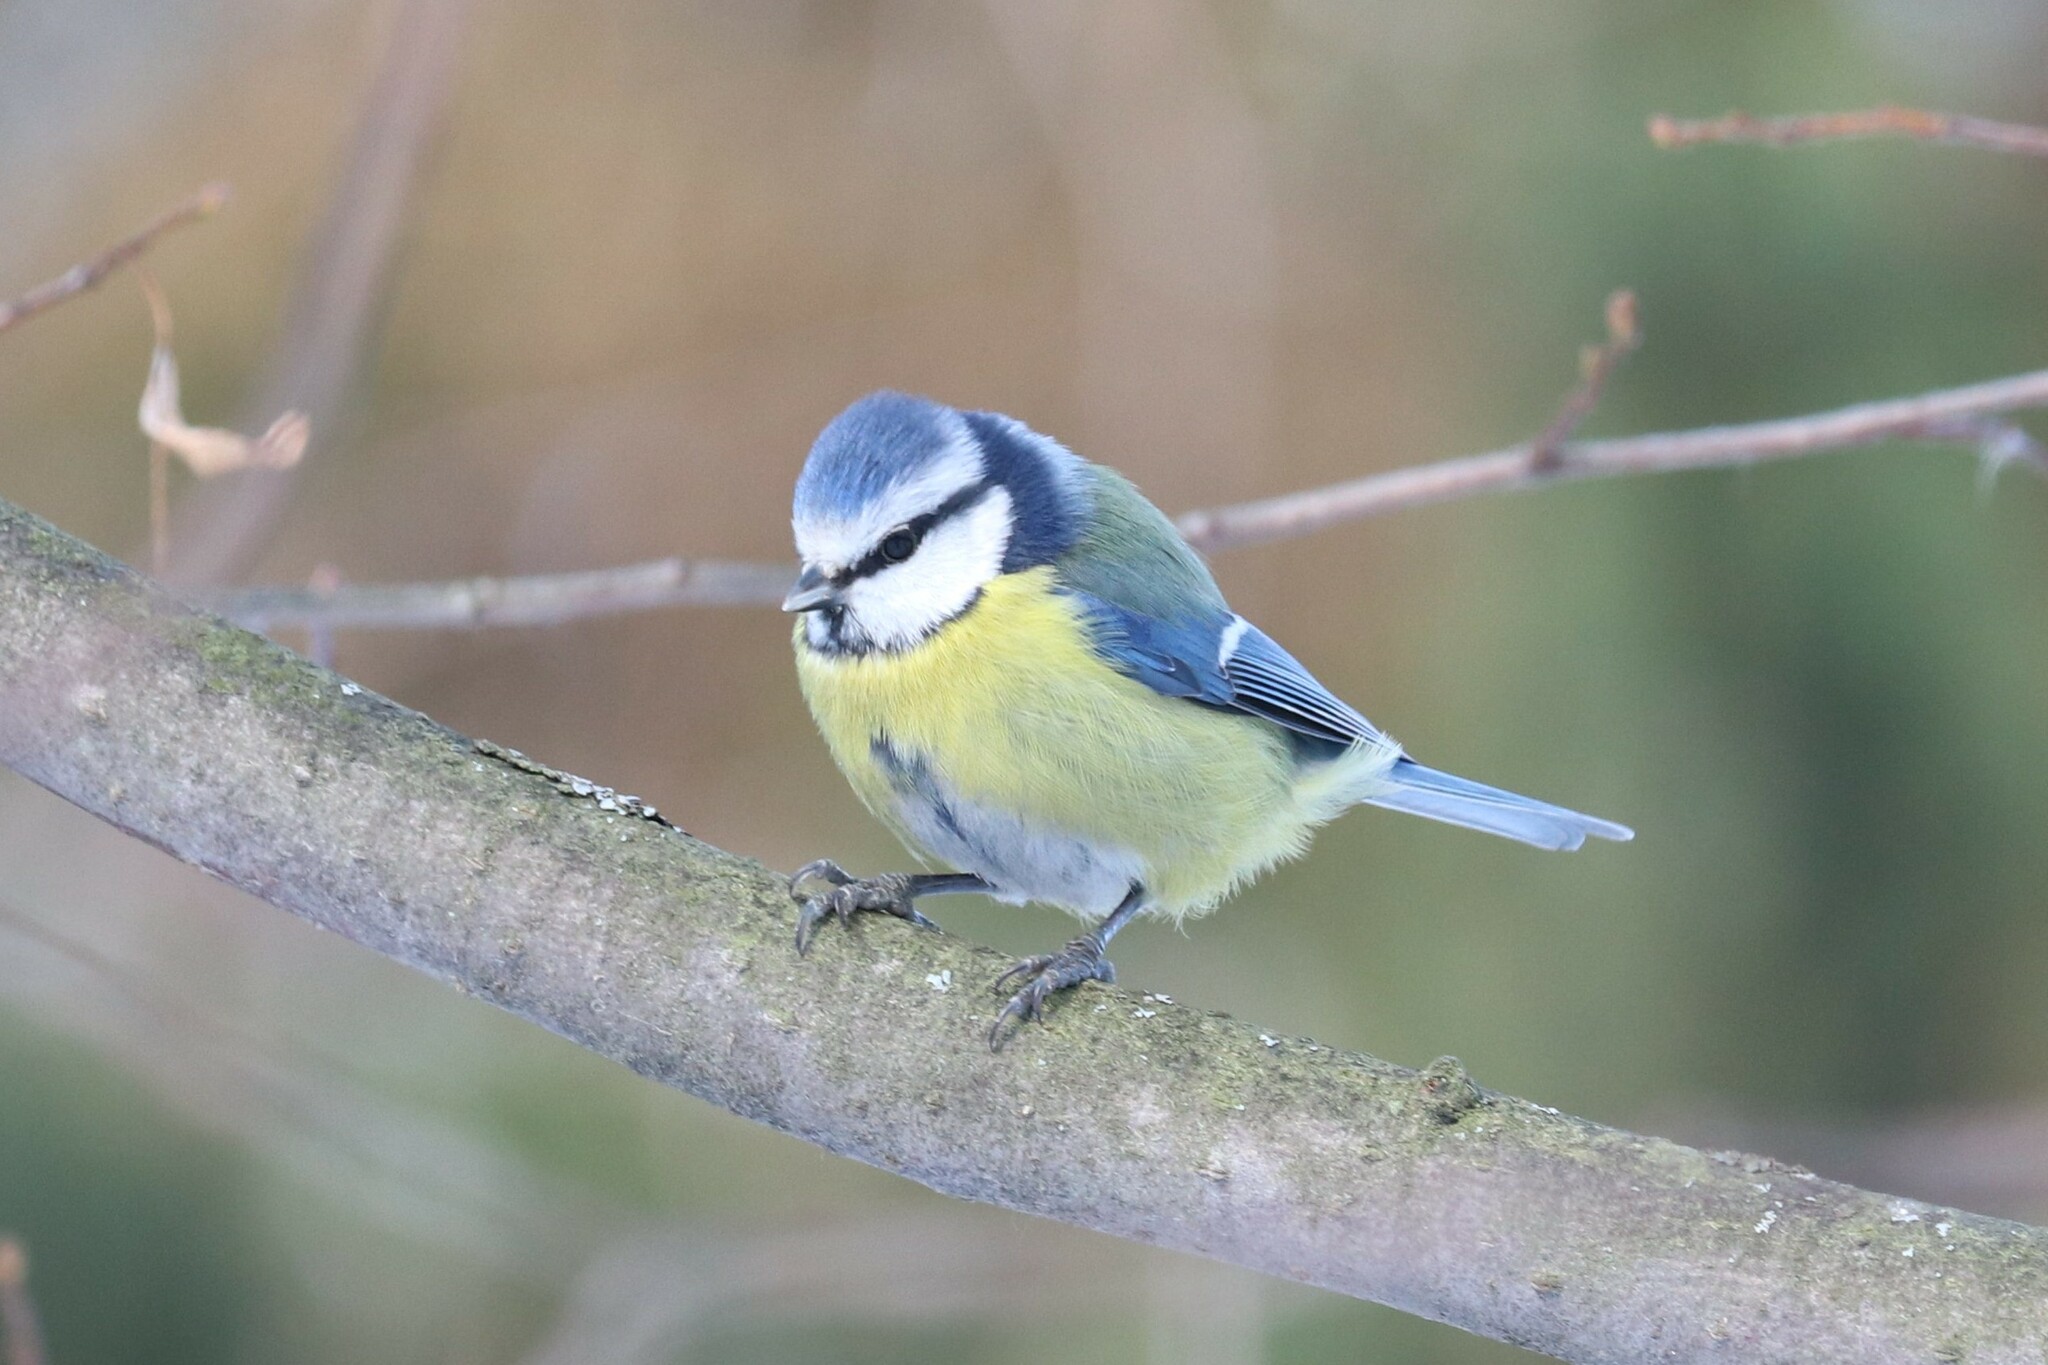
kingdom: Animalia
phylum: Chordata
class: Aves
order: Passeriformes
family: Paridae
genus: Cyanistes
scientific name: Cyanistes caeruleus
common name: Eurasian blue tit
